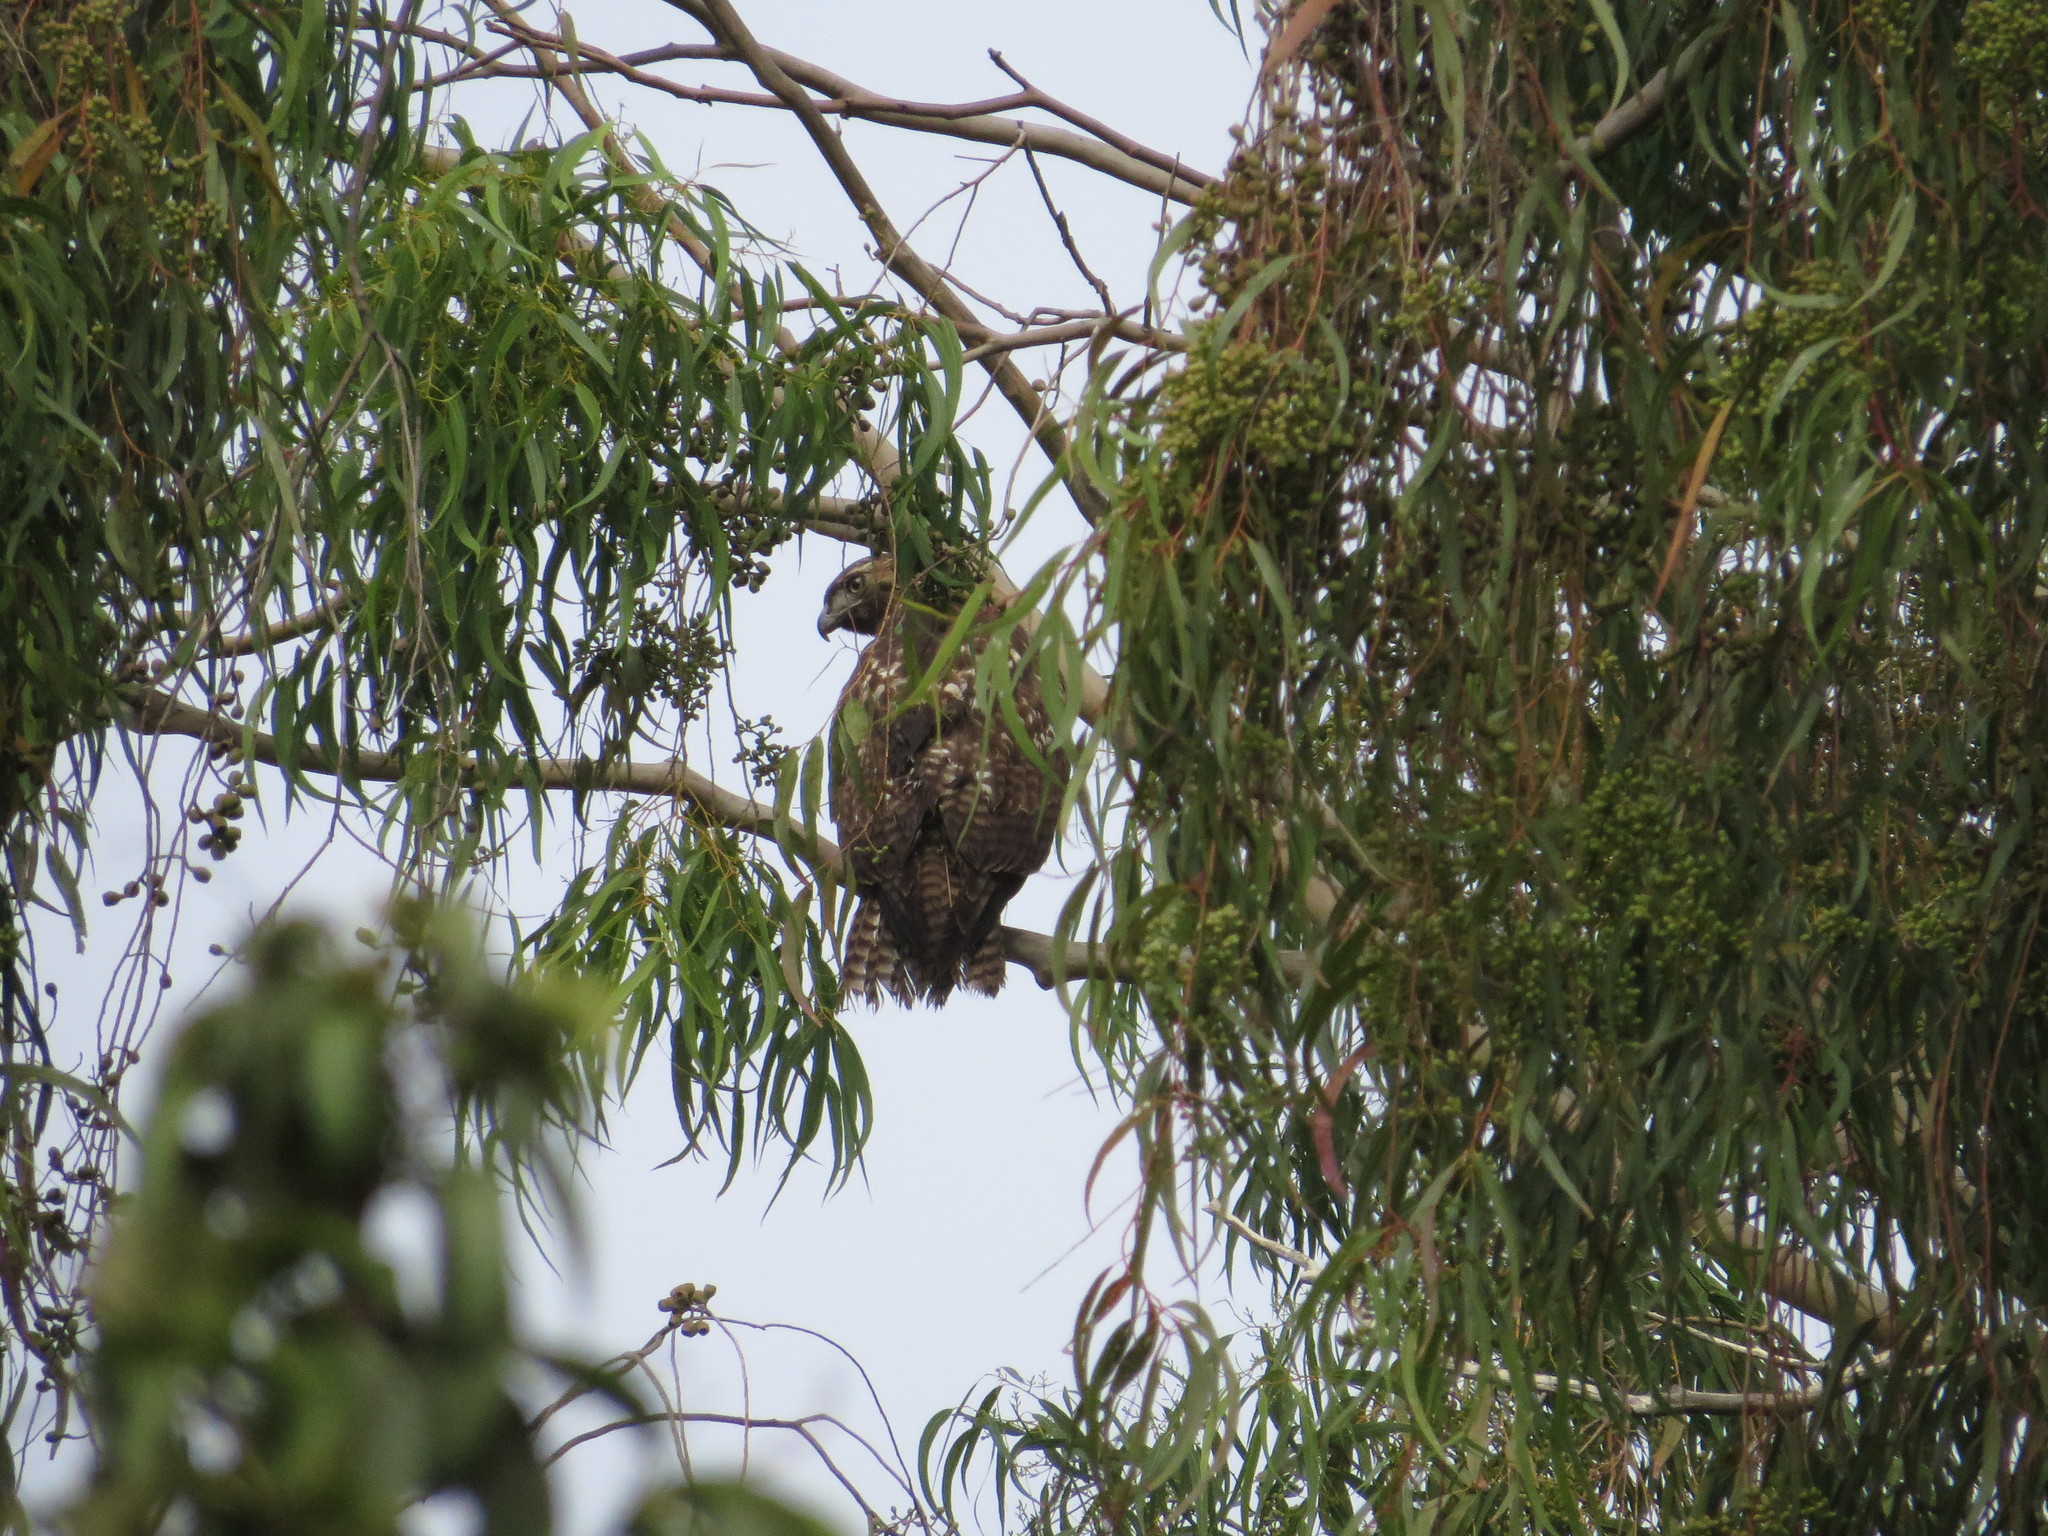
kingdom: Animalia
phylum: Chordata
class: Aves
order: Accipitriformes
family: Accipitridae
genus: Buteo
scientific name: Buteo jamaicensis
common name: Red-tailed hawk
